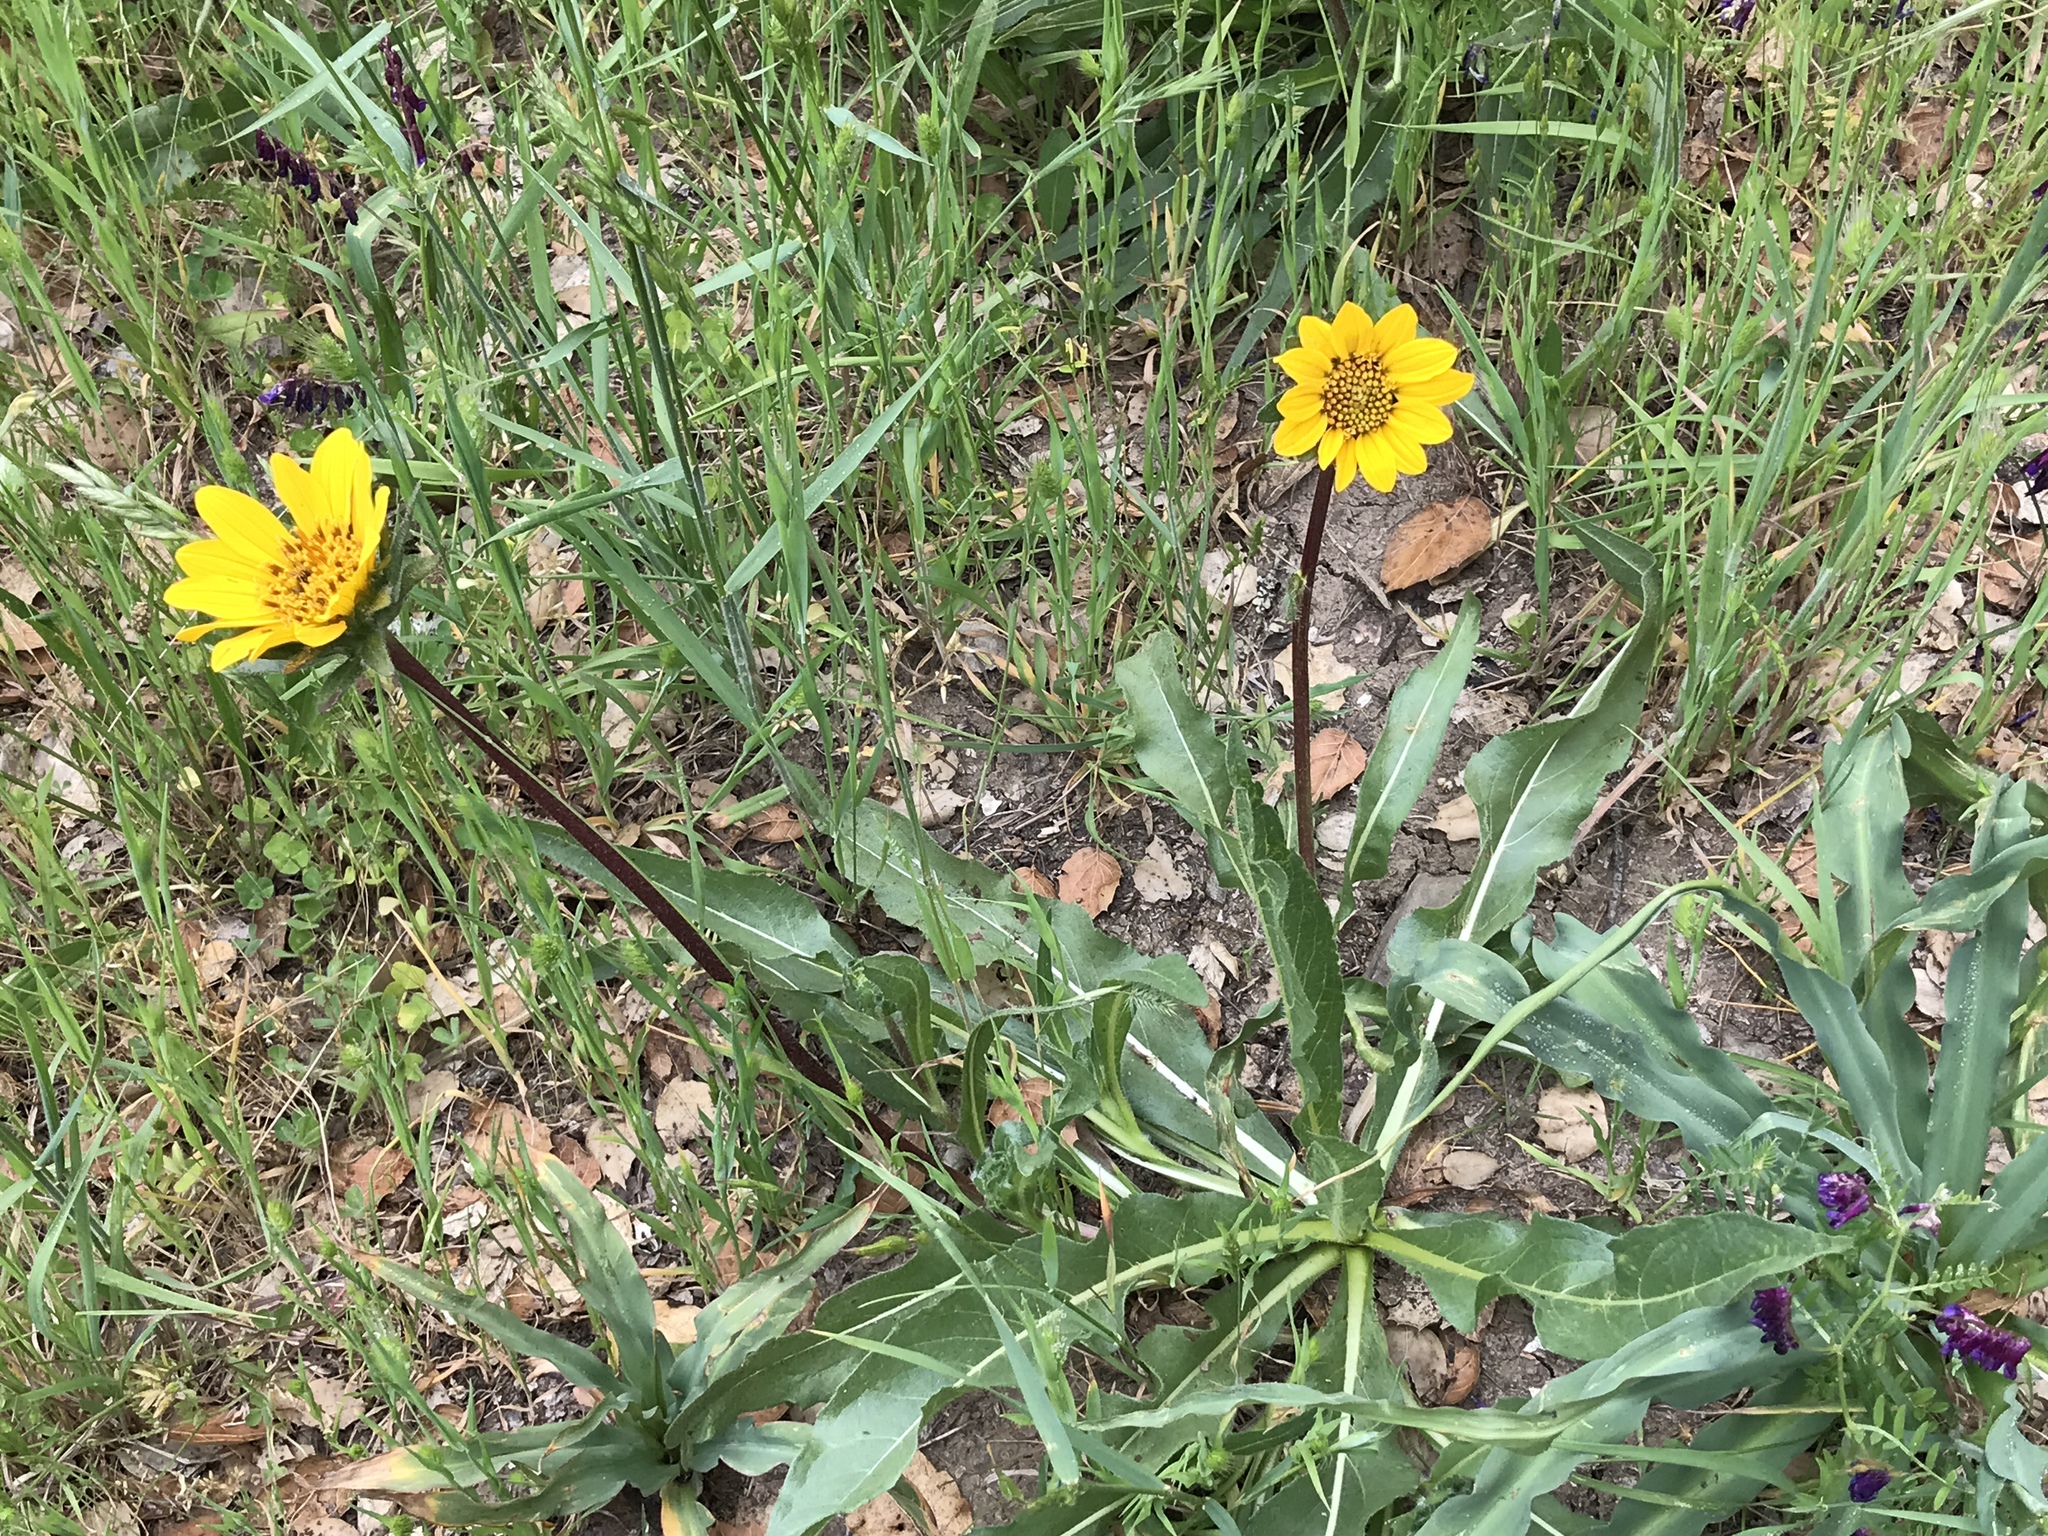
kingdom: Plantae
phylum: Tracheophyta
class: Magnoliopsida
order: Asterales
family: Asteraceae
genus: Wyethia
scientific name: Wyethia angustifolia
